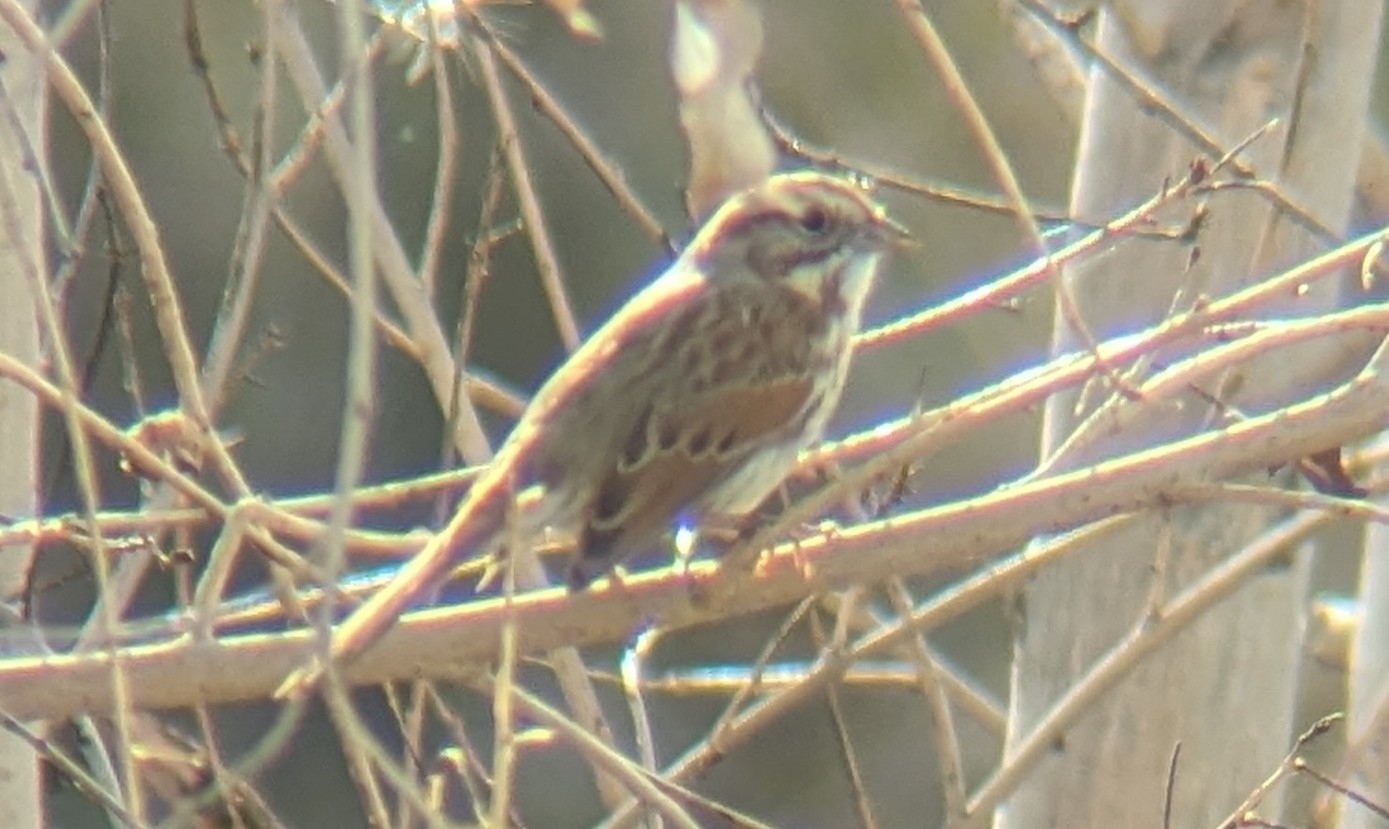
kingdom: Animalia
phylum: Chordata
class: Aves
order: Passeriformes
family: Passerellidae
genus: Melospiza
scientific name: Melospiza melodia
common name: Song sparrow
